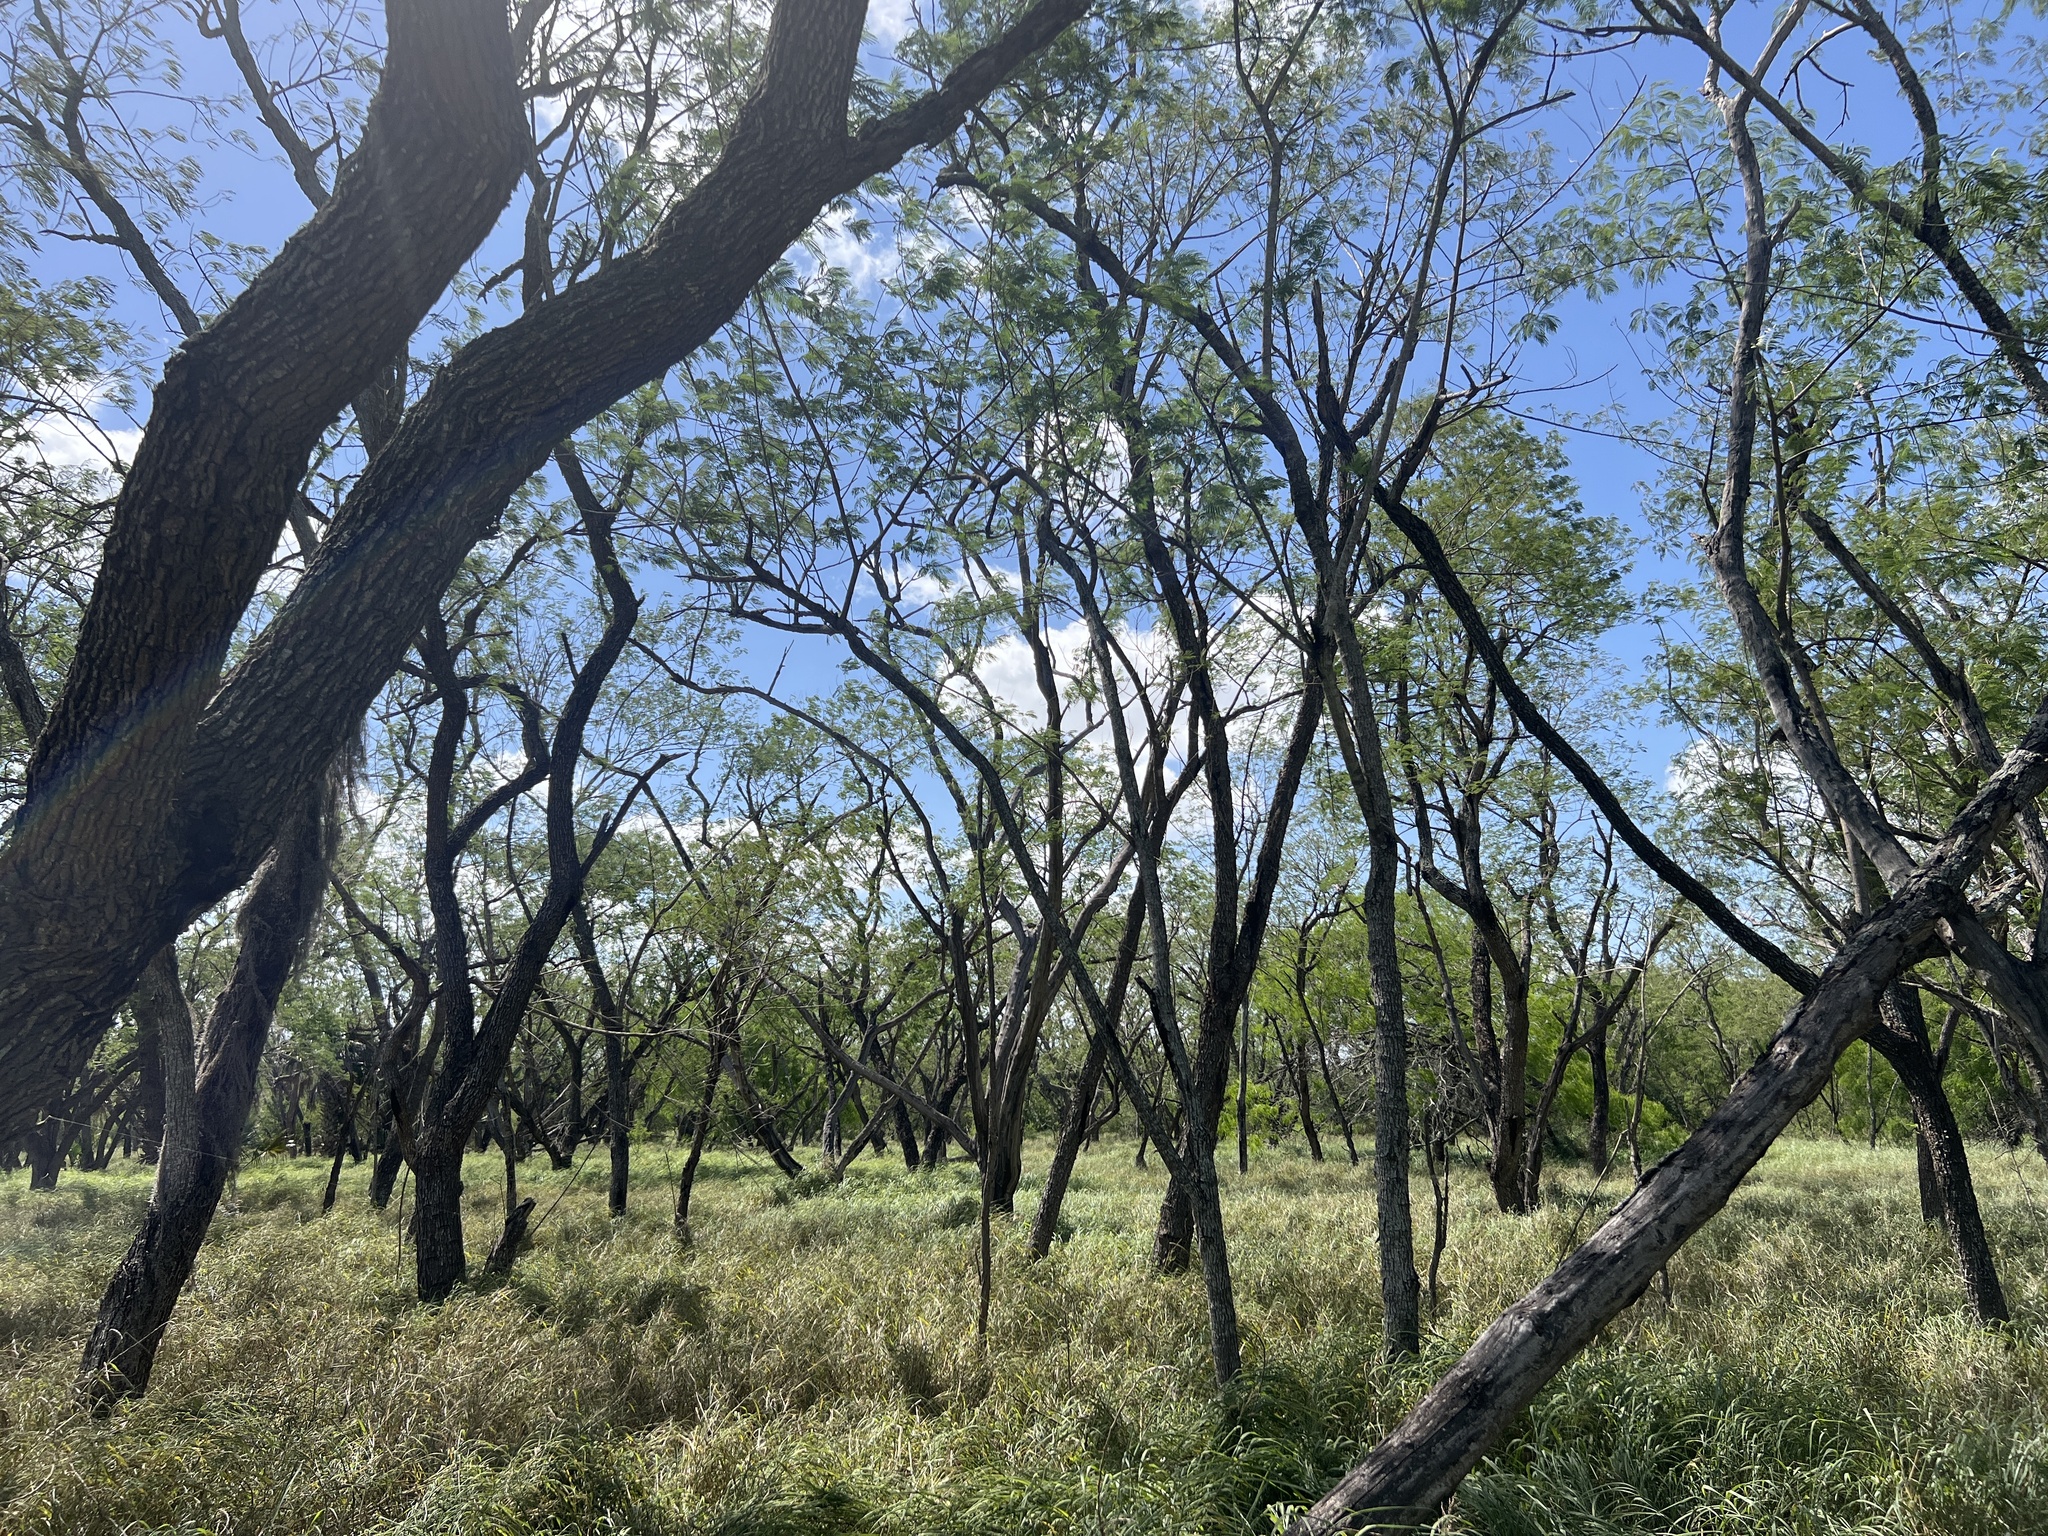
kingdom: Plantae
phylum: Tracheophyta
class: Magnoliopsida
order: Fabales
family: Fabaceae
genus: Leucaena
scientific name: Leucaena pulverulenta
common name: Great leadtree
